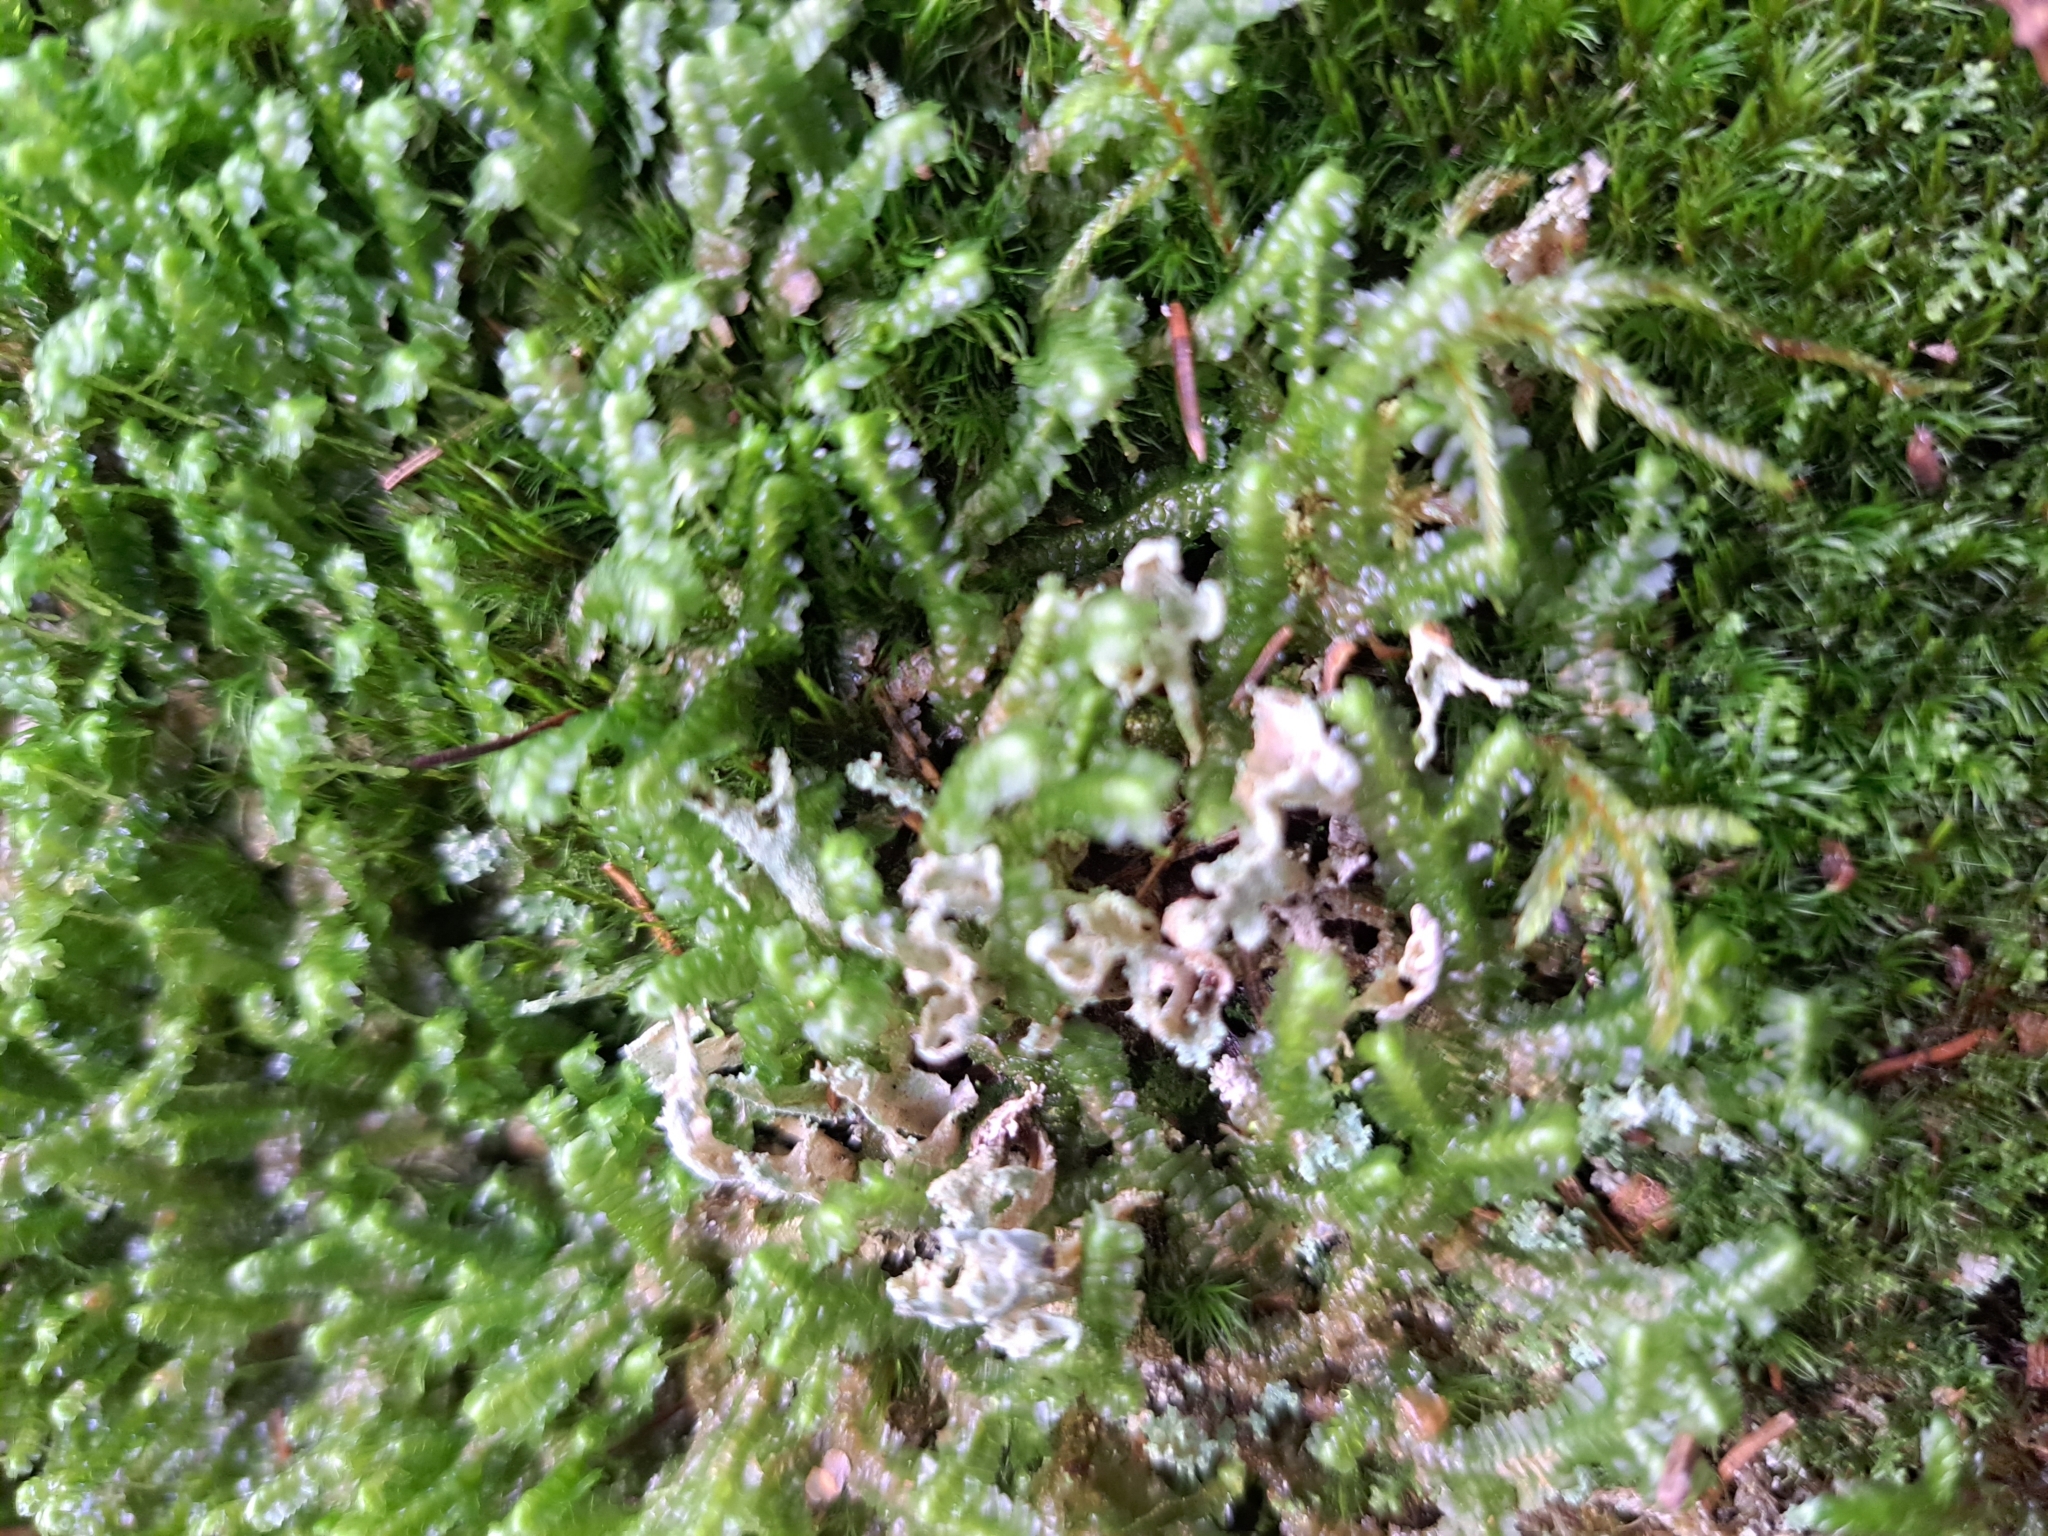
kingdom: Plantae
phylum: Marchantiophyta
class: Jungermanniopsida
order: Jungermanniales
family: Lepidoziaceae
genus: Bazzania
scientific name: Bazzania trilobata
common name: Three-lobed whipwort
